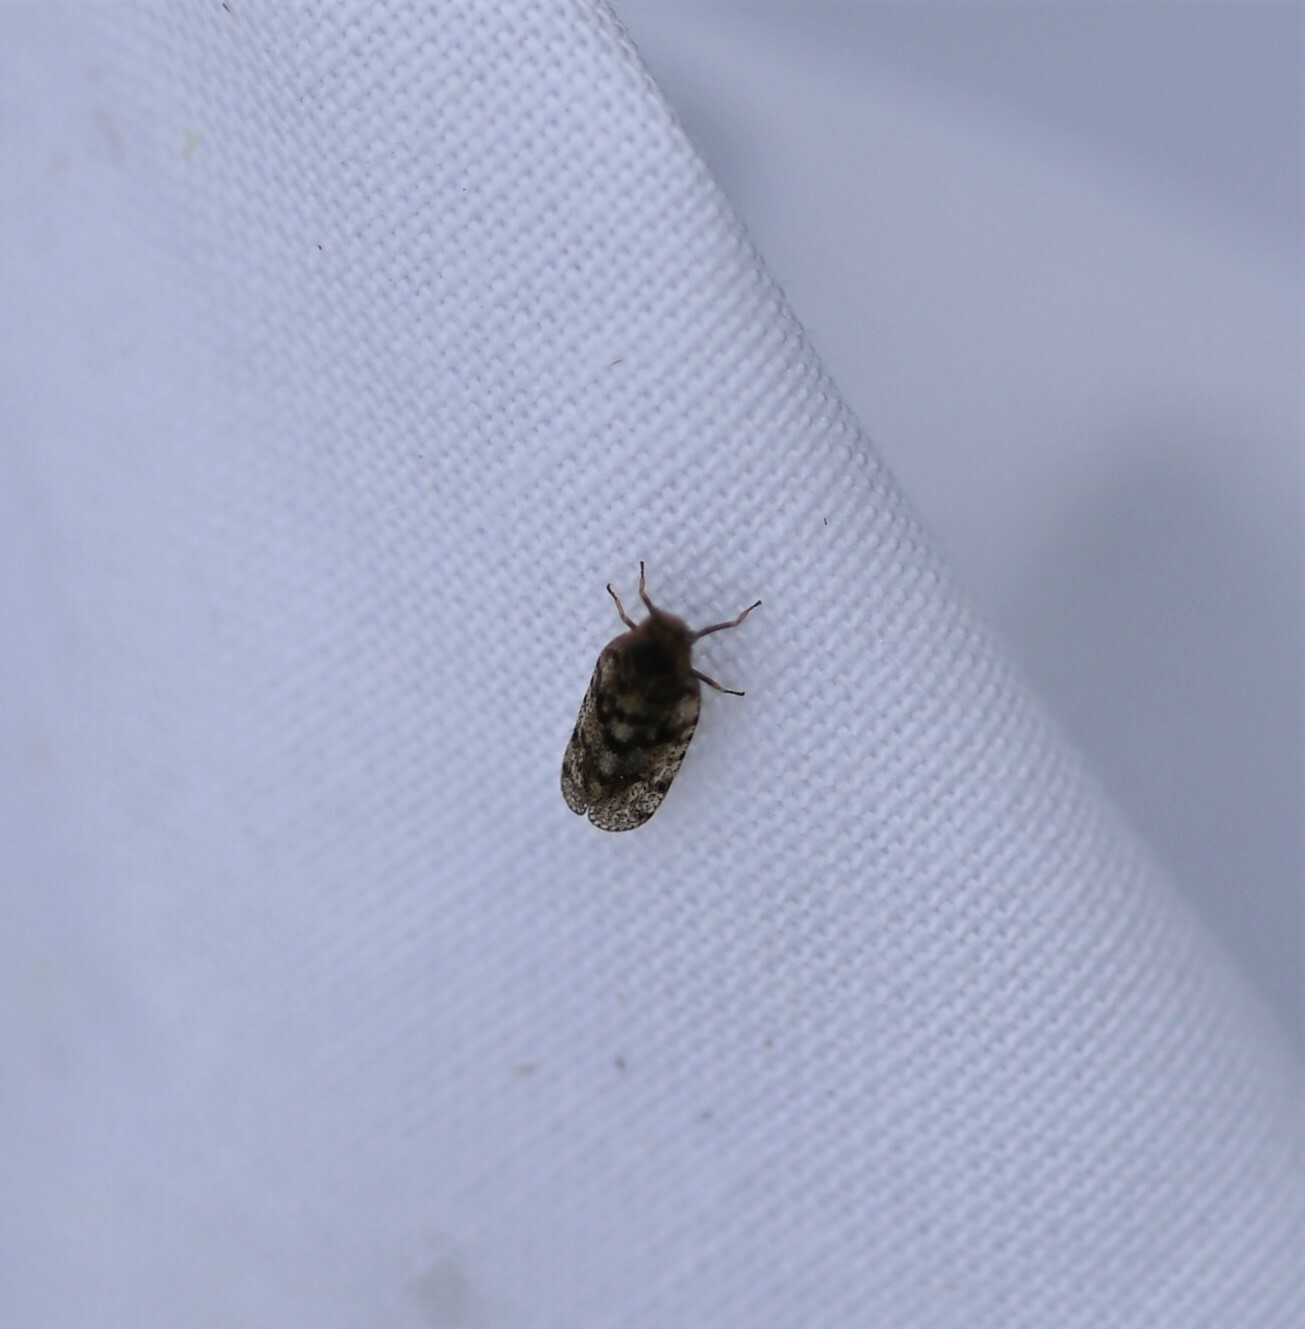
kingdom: Animalia
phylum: Arthropoda
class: Insecta
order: Hemiptera
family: Cixiidae
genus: Tachycixius
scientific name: Tachycixius pilosus
